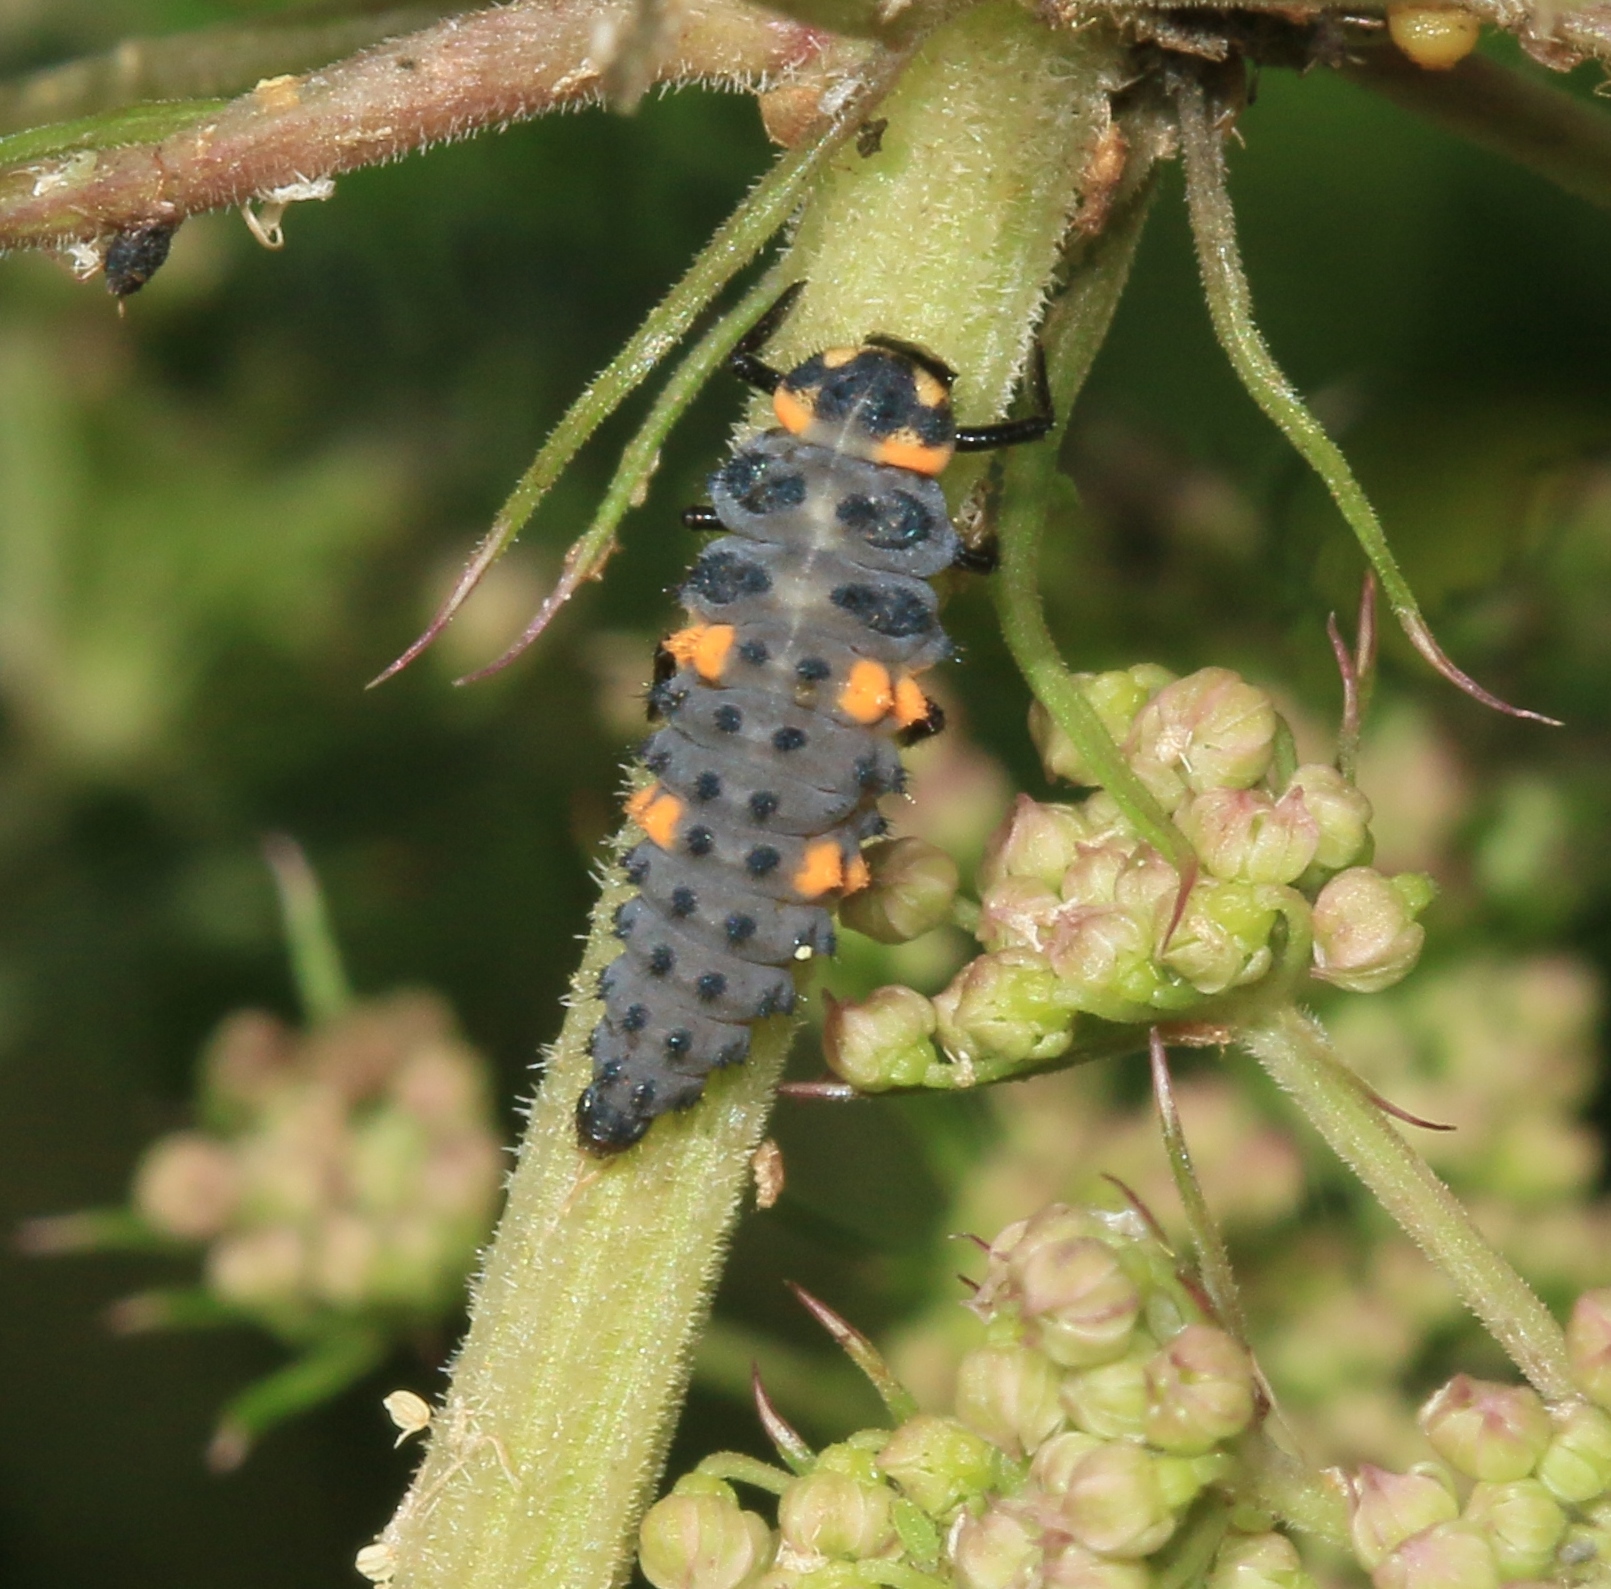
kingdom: Animalia
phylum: Arthropoda
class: Insecta
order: Coleoptera
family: Coccinellidae
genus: Coccinella
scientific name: Coccinella septempunctata
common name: Sevenspotted lady beetle
